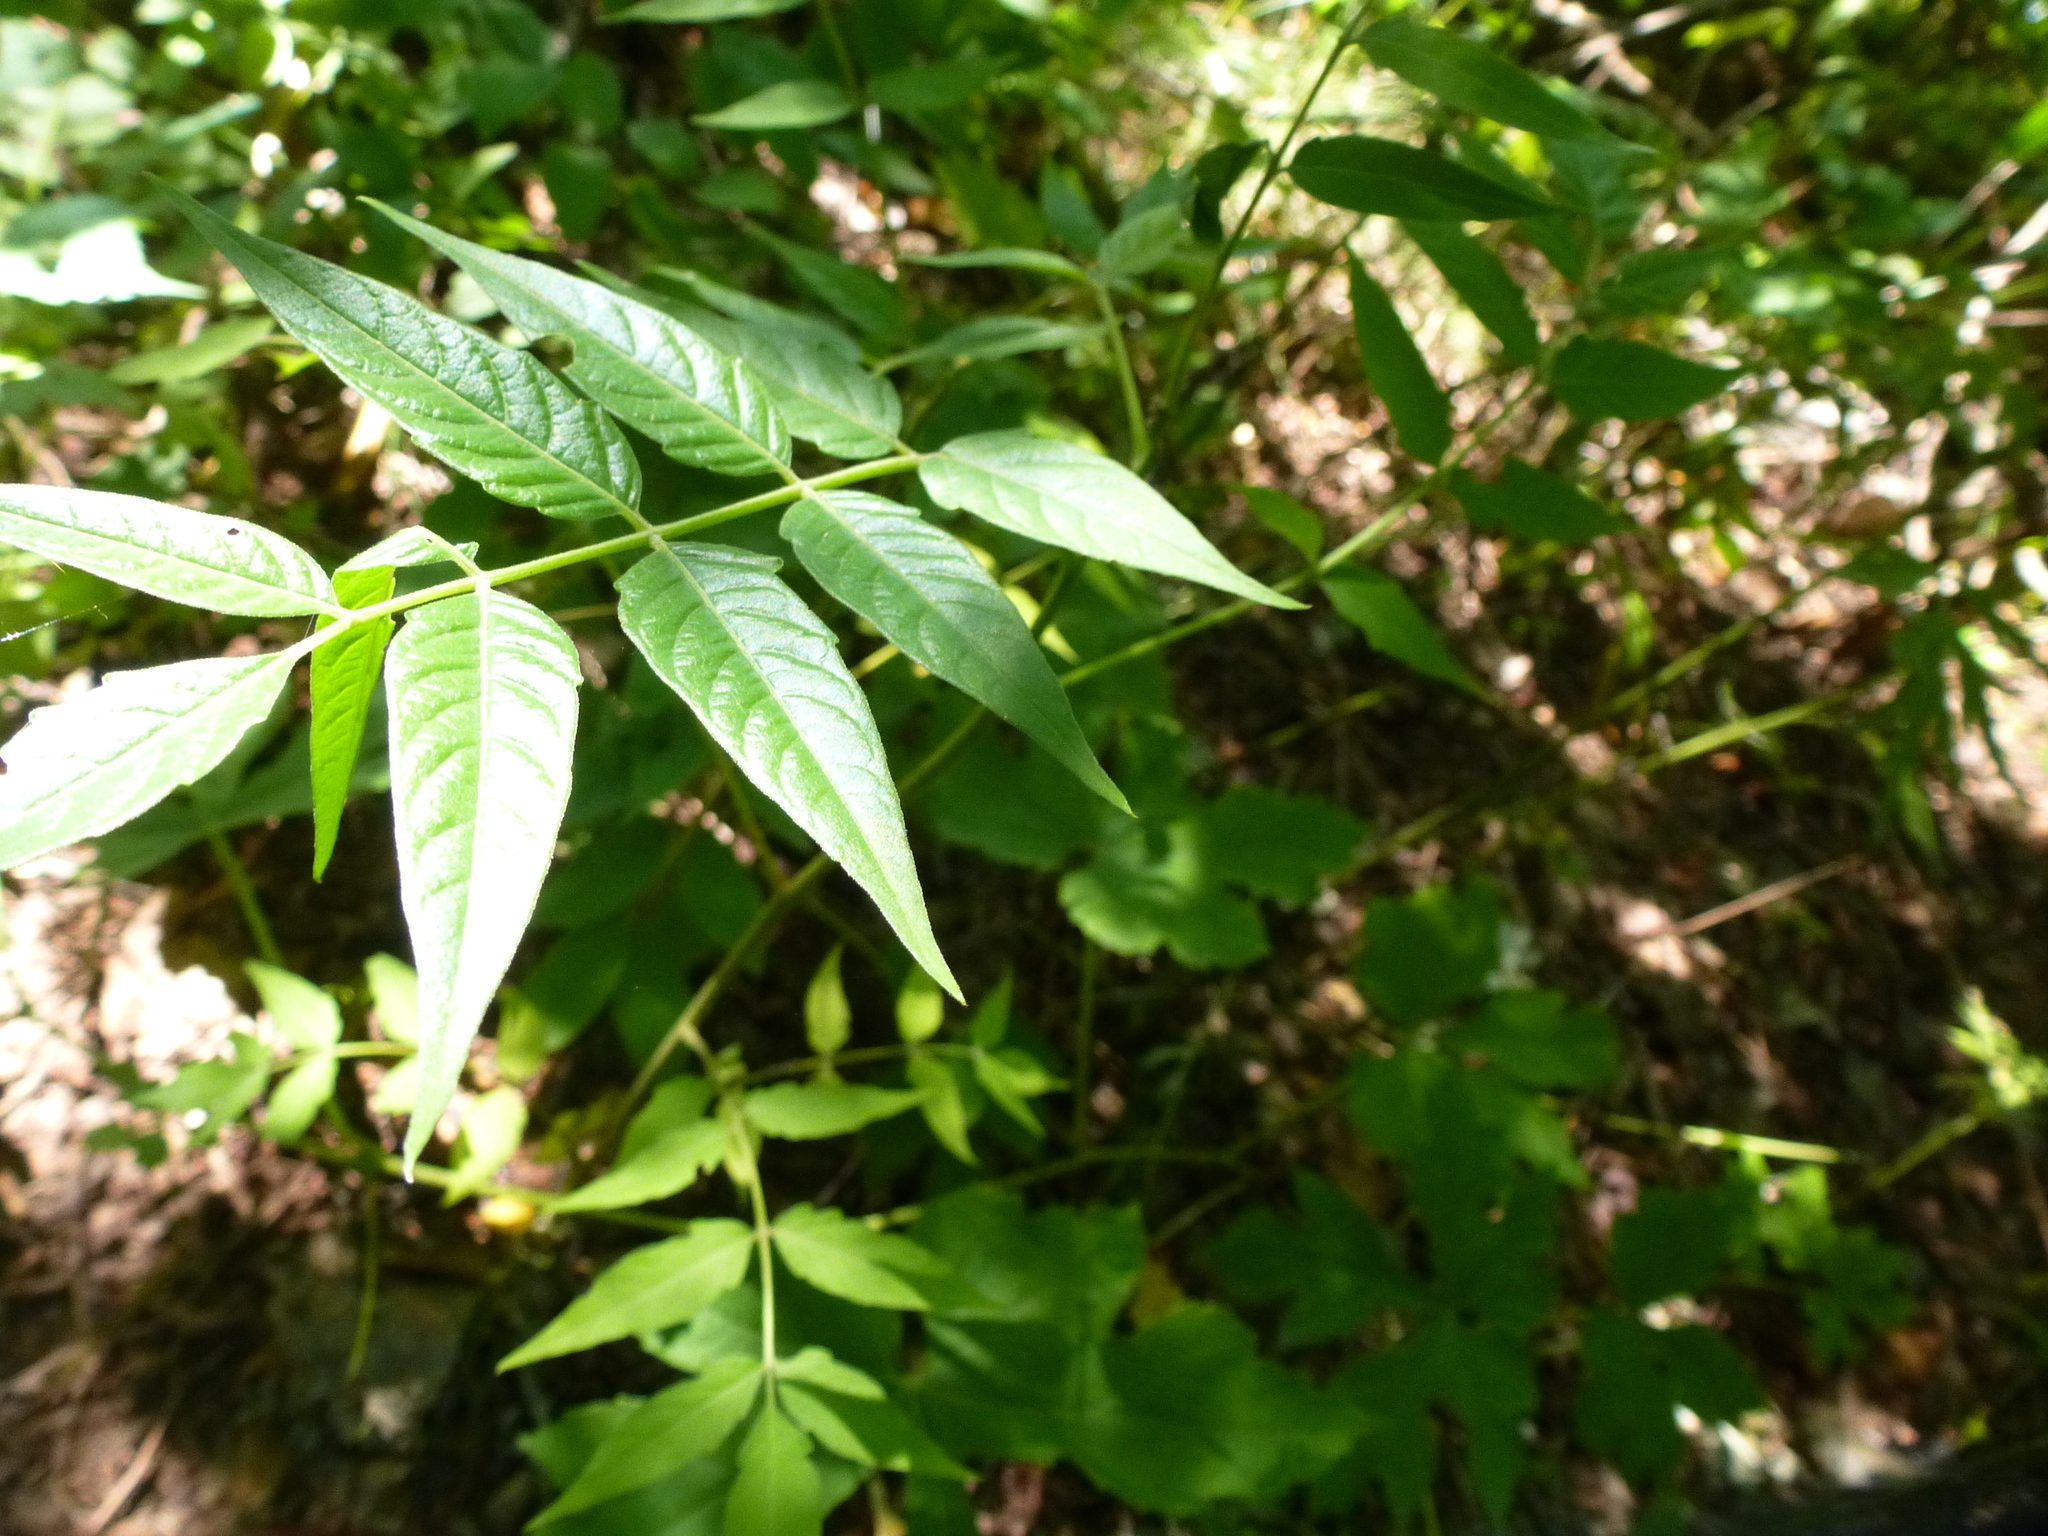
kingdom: Plantae
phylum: Tracheophyta
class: Magnoliopsida
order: Sapindales
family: Simaroubaceae
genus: Ailanthus
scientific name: Ailanthus altissima
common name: Tree-of-heaven
